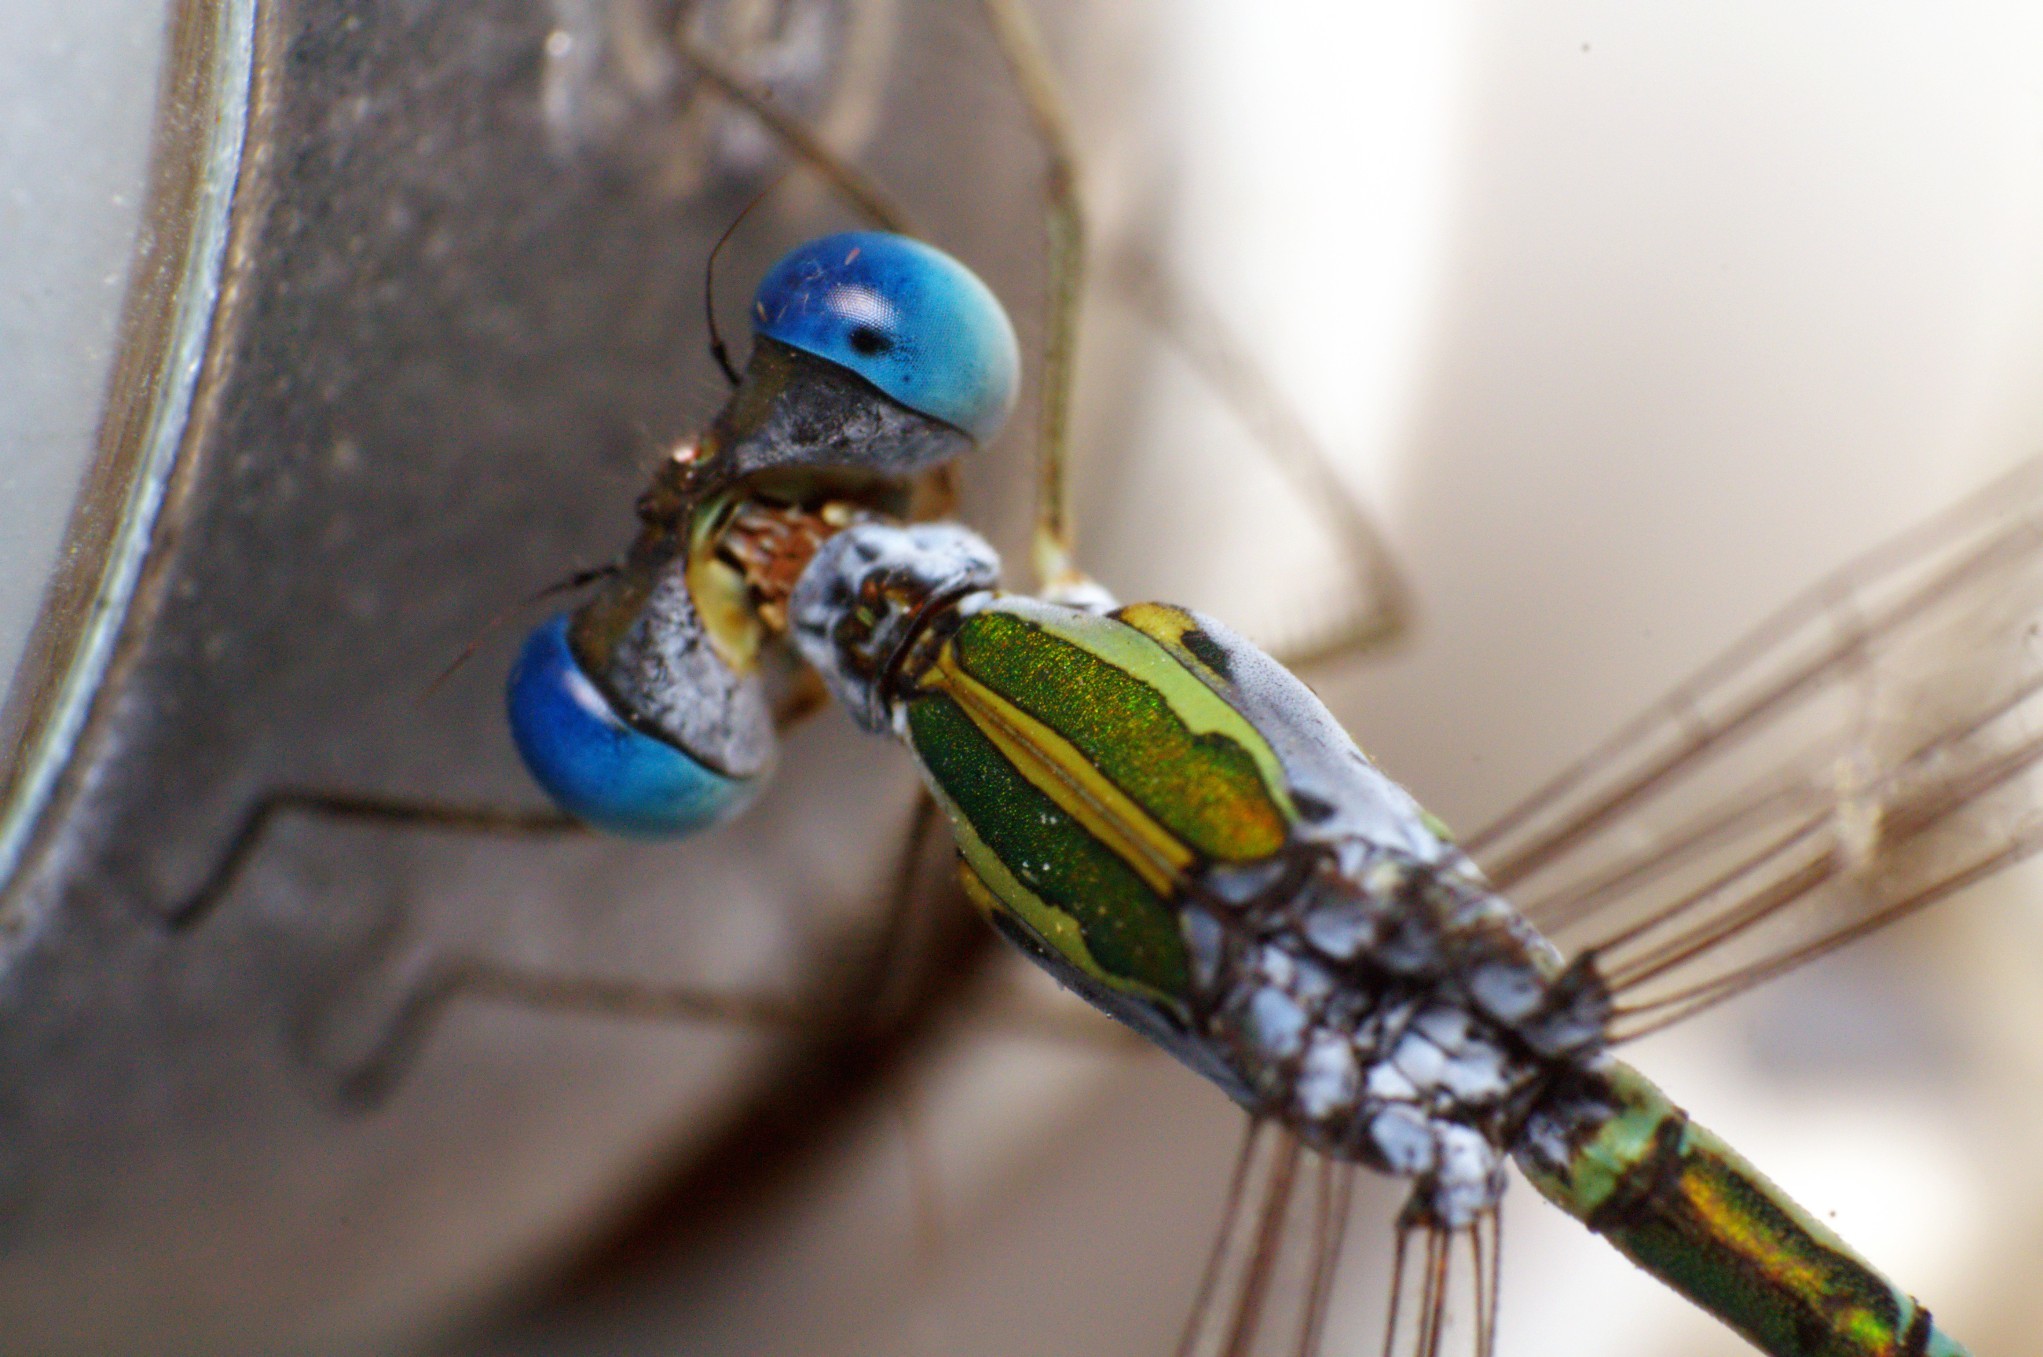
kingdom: Animalia
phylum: Arthropoda
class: Insecta
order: Odonata
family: Lestidae
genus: Lestes
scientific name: Lestes elatus
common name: Emerald spreadwing
